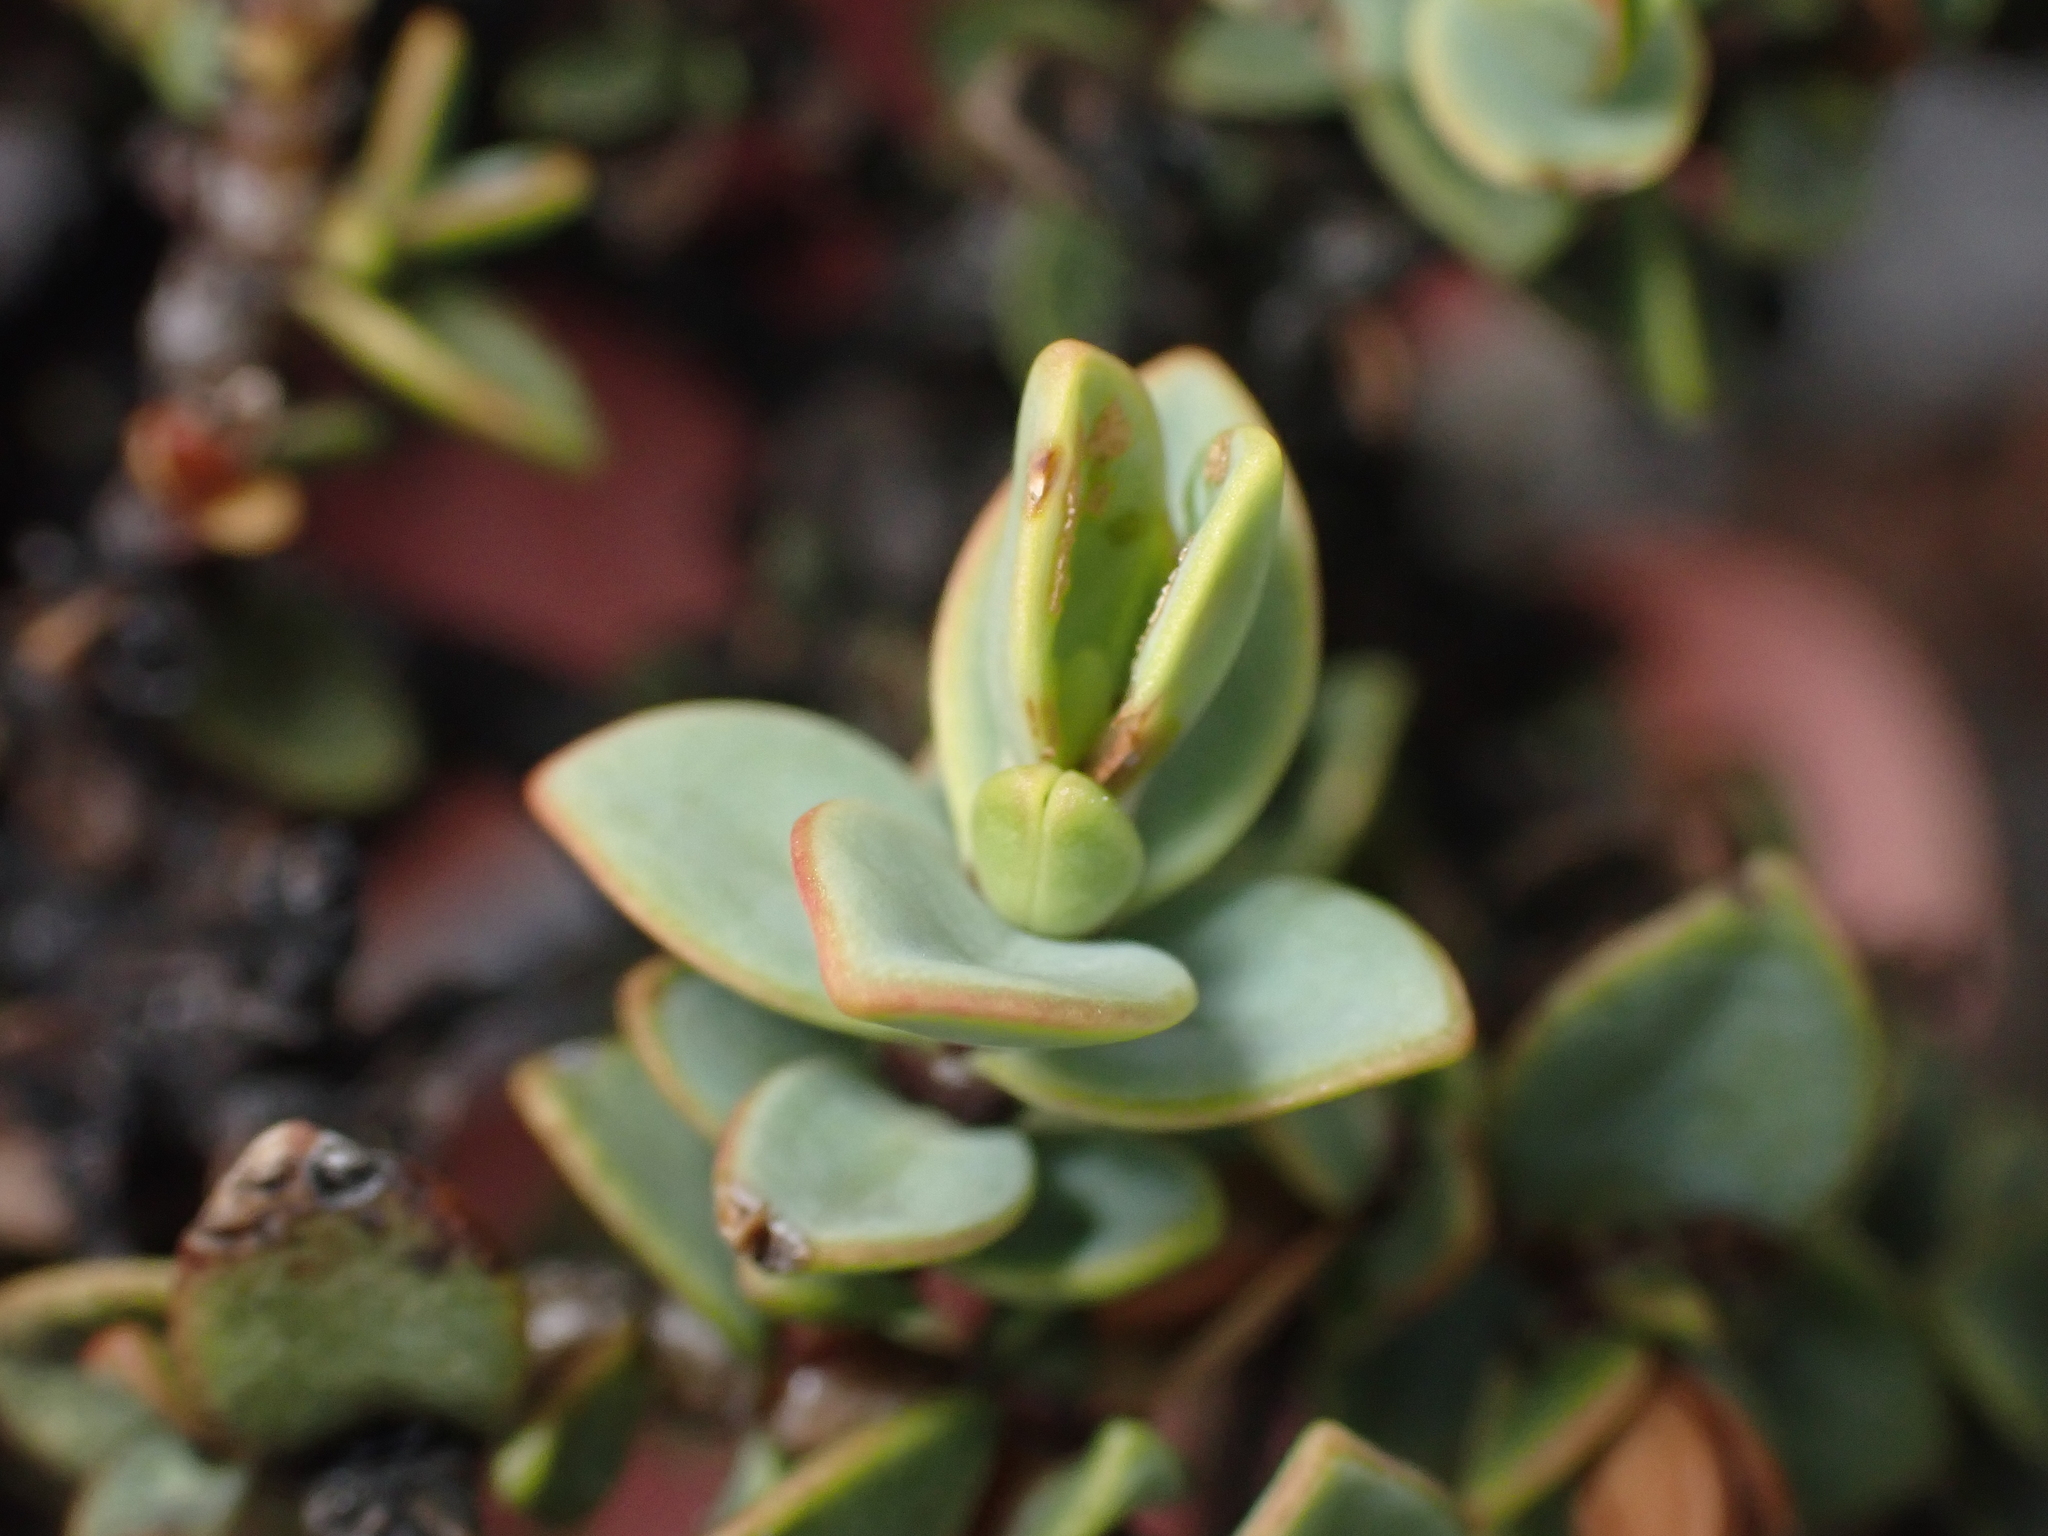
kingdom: Plantae
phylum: Tracheophyta
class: Magnoliopsida
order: Lamiales
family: Plantaginaceae
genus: Veronica
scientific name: Veronica pinguifolia
